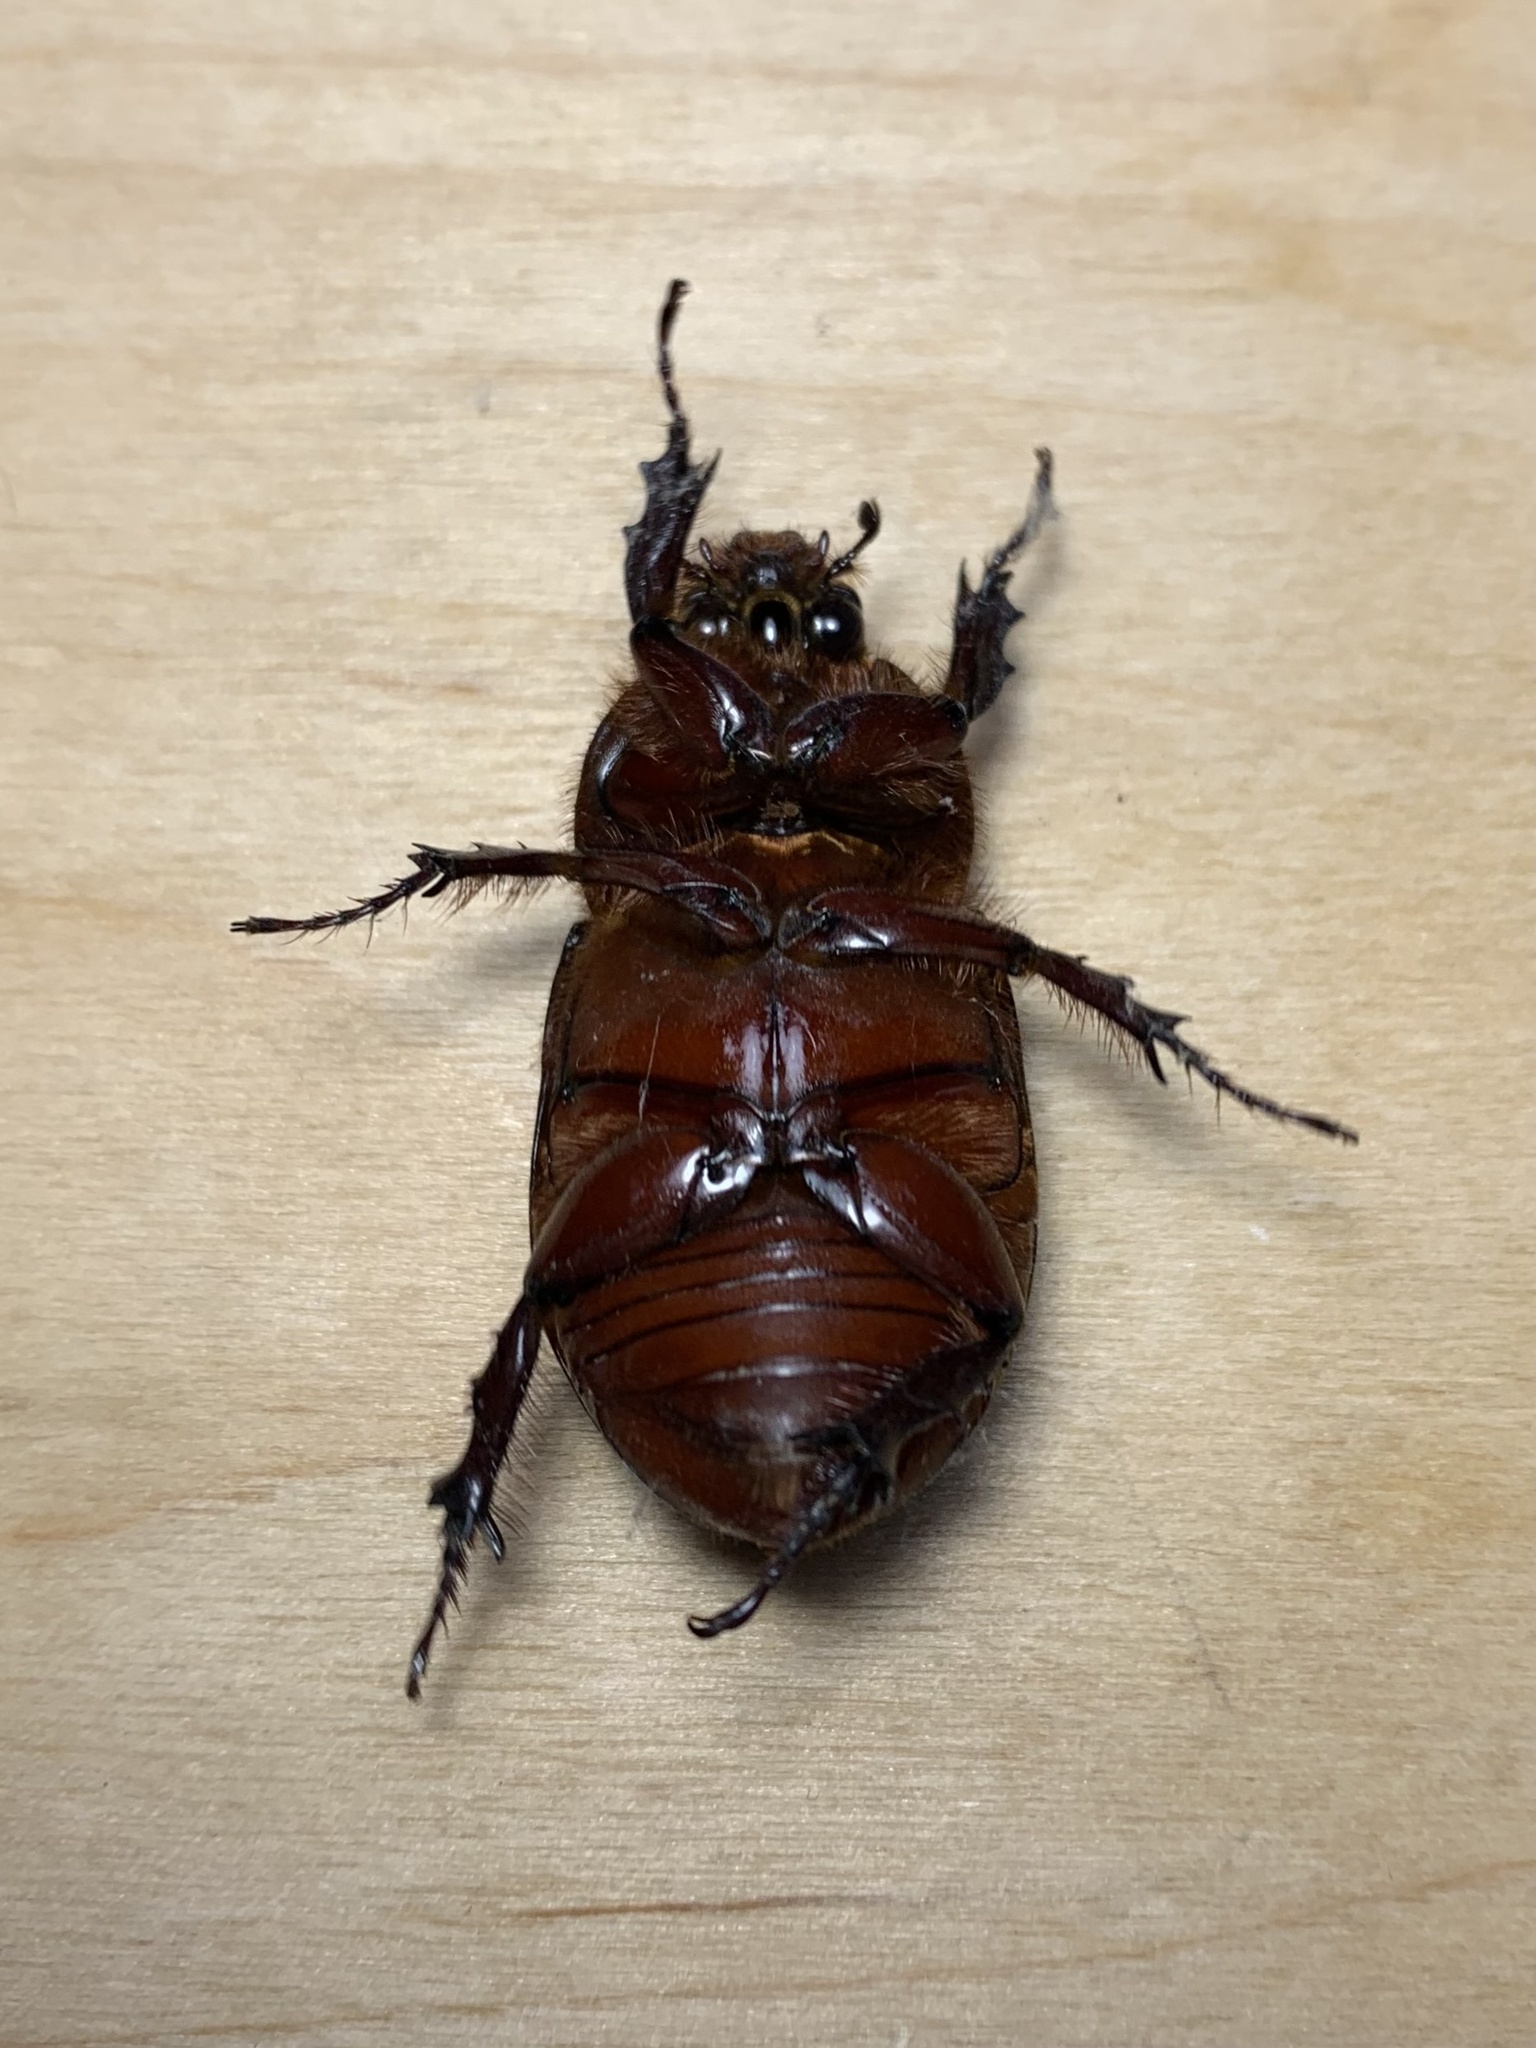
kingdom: Animalia
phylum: Arthropoda
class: Insecta
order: Coleoptera
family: Scarabaeidae
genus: Oryctes
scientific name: Oryctes nasicornis
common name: European rhinoceros beetle
